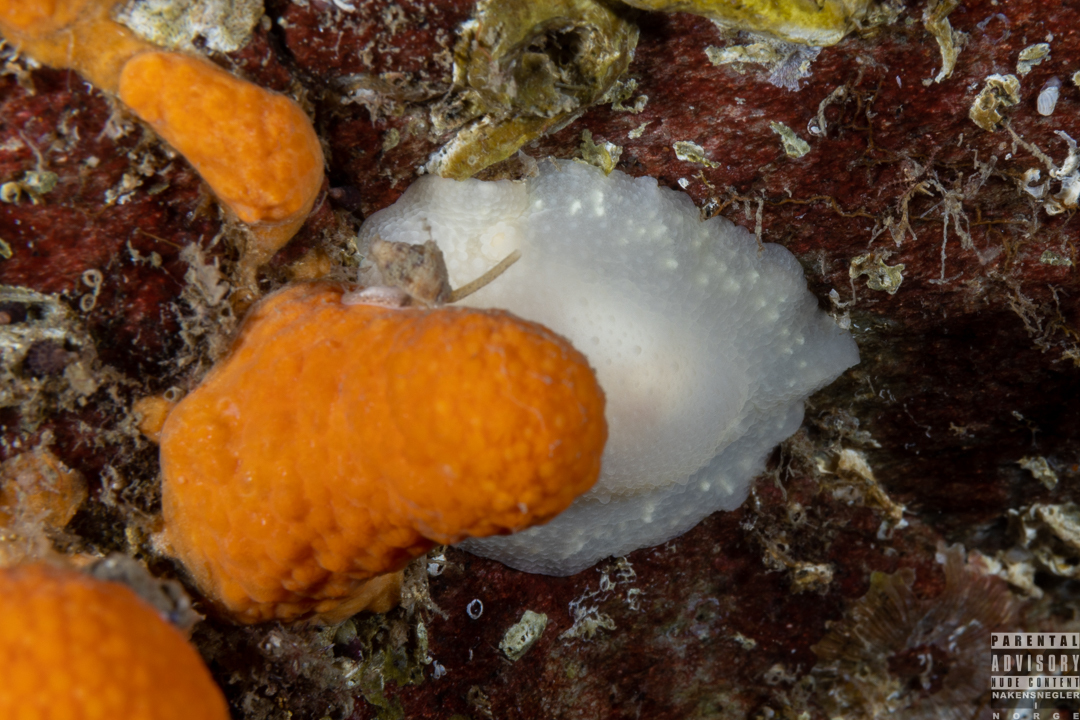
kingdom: Animalia
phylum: Mollusca
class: Gastropoda
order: Nudibranchia
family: Cadlinidae
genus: Cadlina
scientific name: Cadlina laevis
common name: White atlantic cadlina
